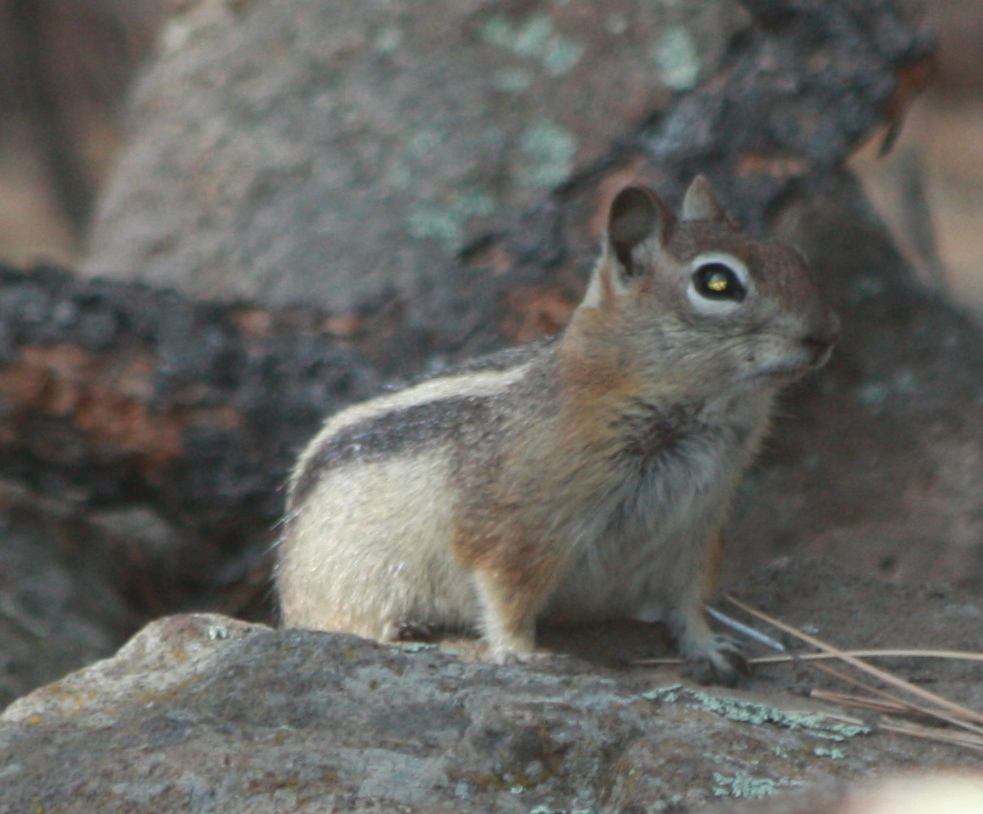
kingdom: Animalia
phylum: Chordata
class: Mammalia
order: Rodentia
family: Sciuridae
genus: Callospermophilus
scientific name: Callospermophilus lateralis
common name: Golden-mantled ground squirrel
